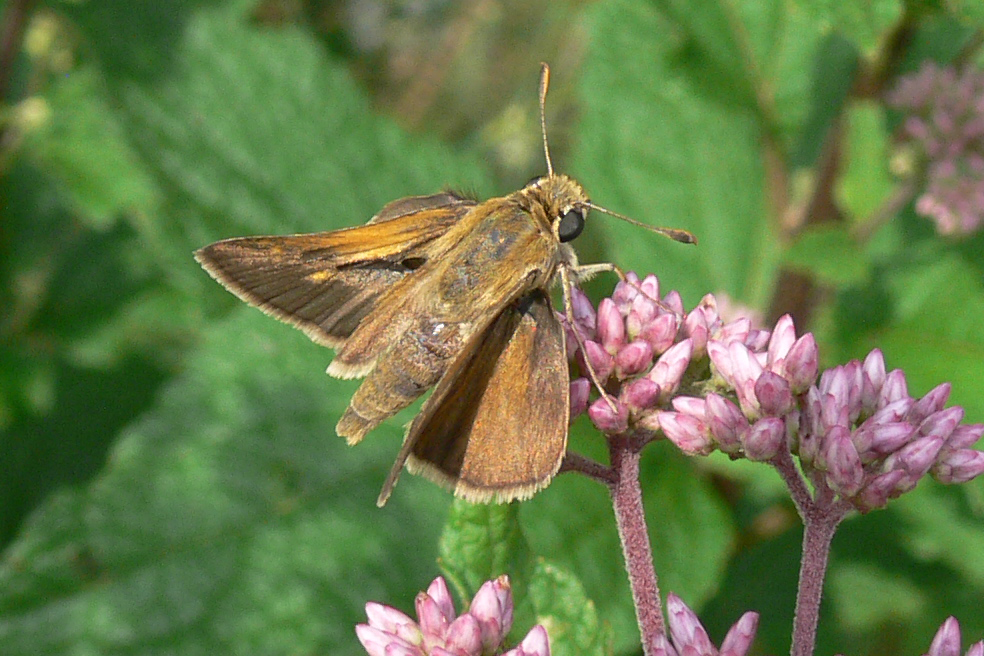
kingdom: Animalia
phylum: Arthropoda
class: Insecta
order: Lepidoptera
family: Hesperiidae
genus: Polites
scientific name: Polites themistocles
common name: Tawny-edged skipper
